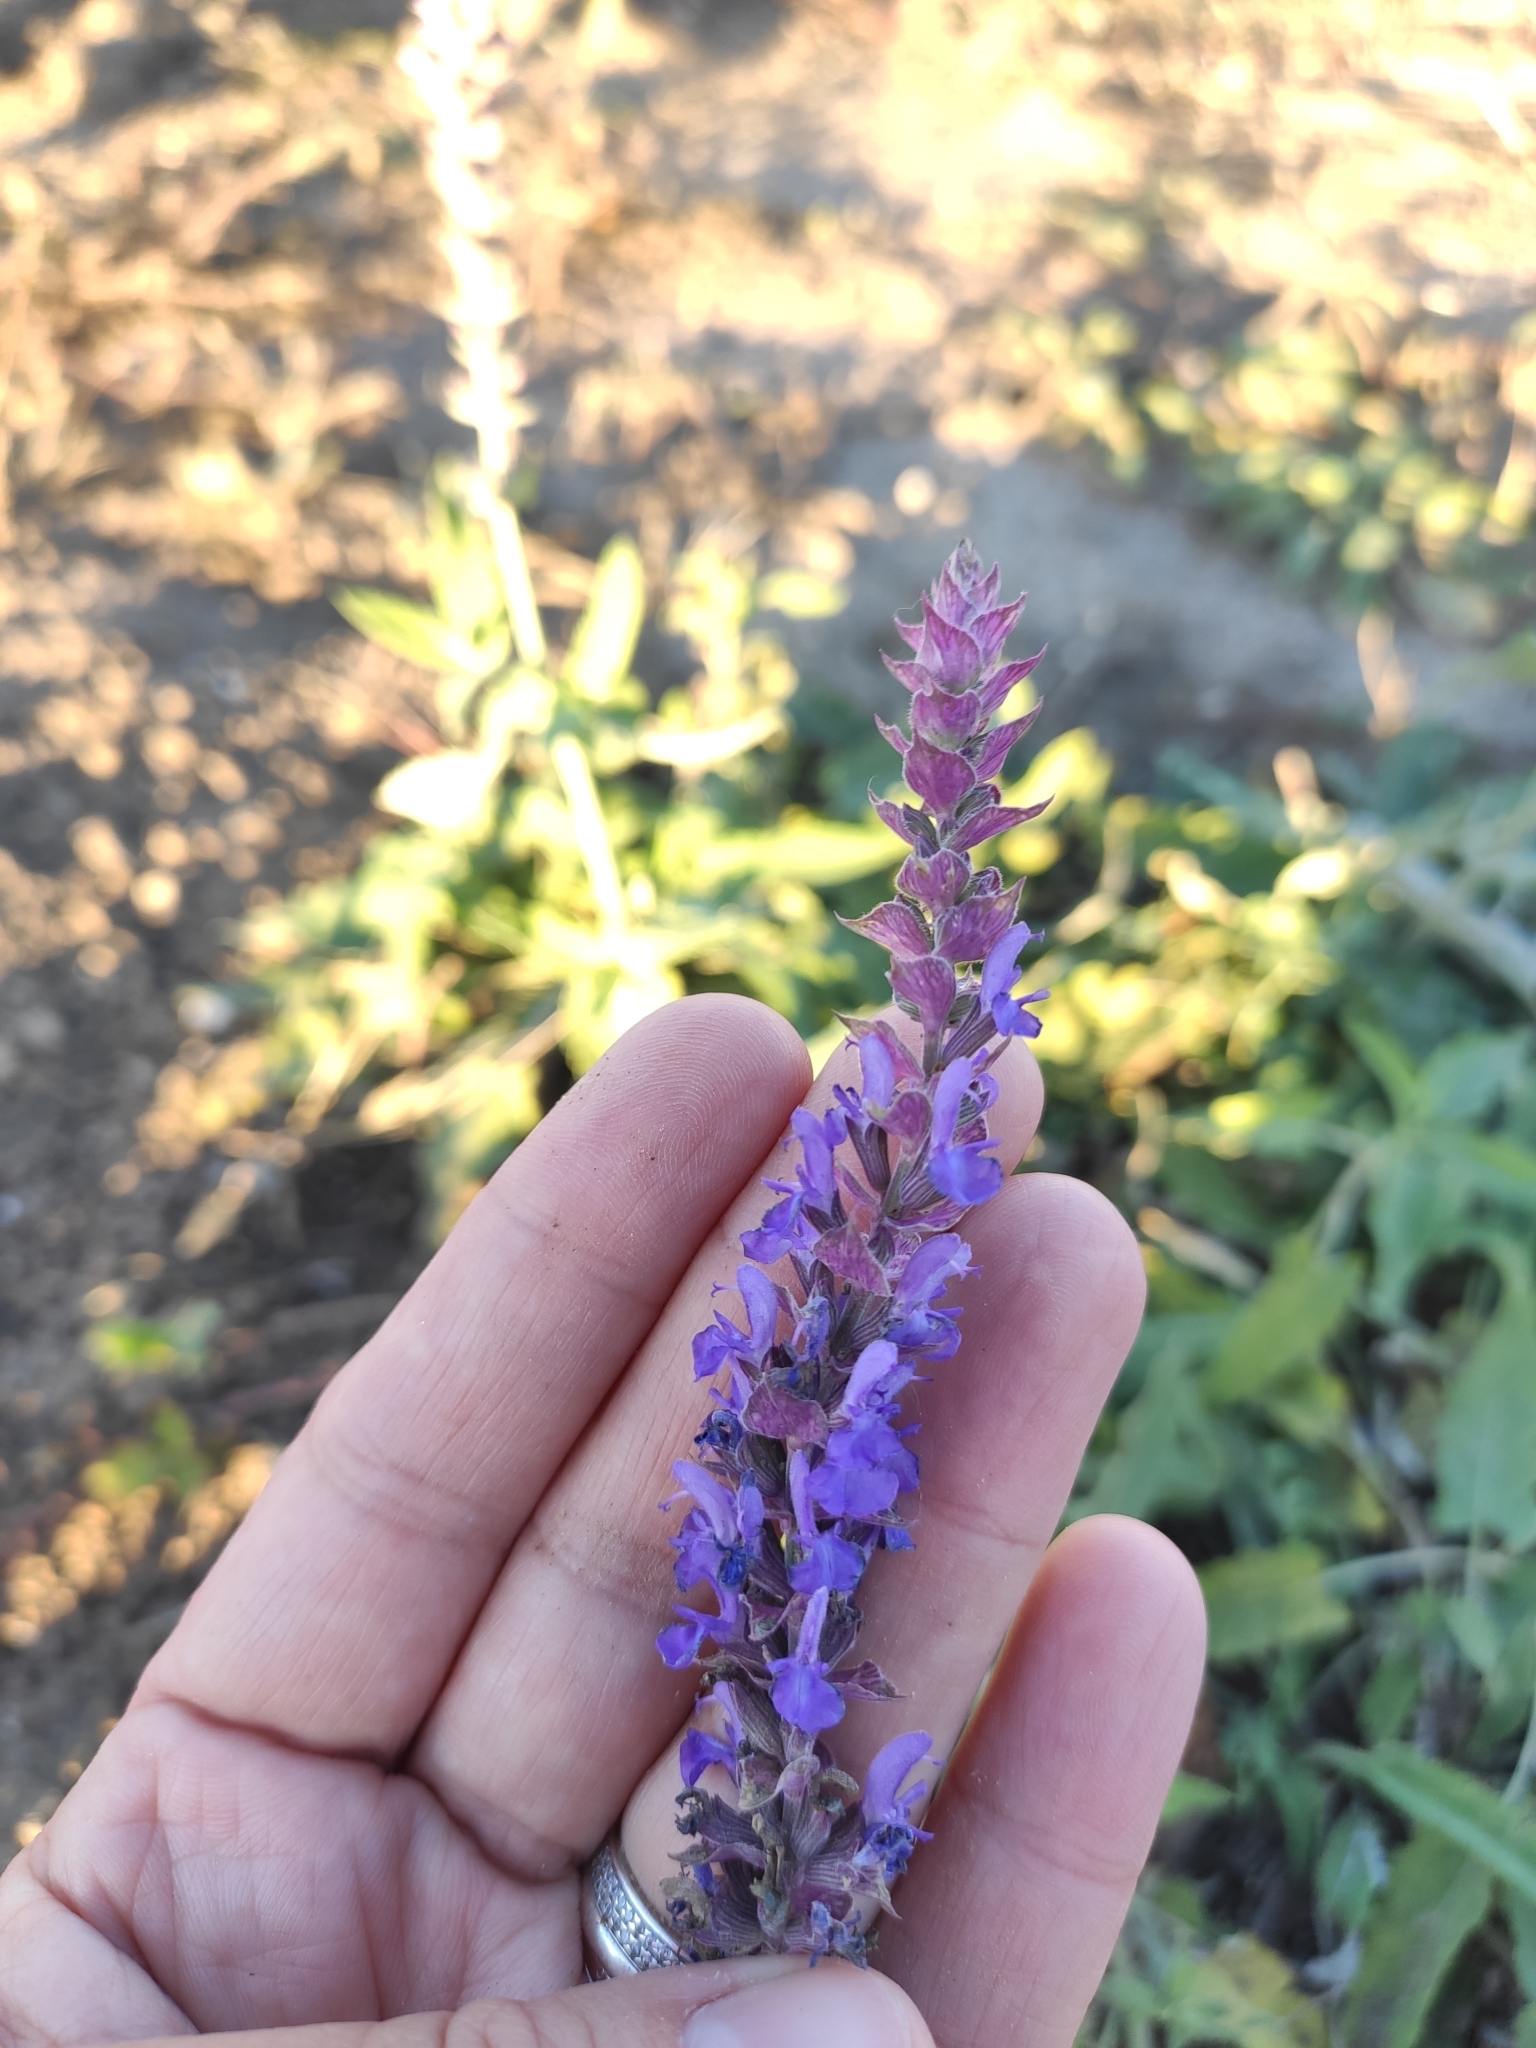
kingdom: Plantae
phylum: Tracheophyta
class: Magnoliopsida
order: Lamiales
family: Lamiaceae
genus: Salvia
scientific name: Salvia nemorosa
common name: Balkan clary
